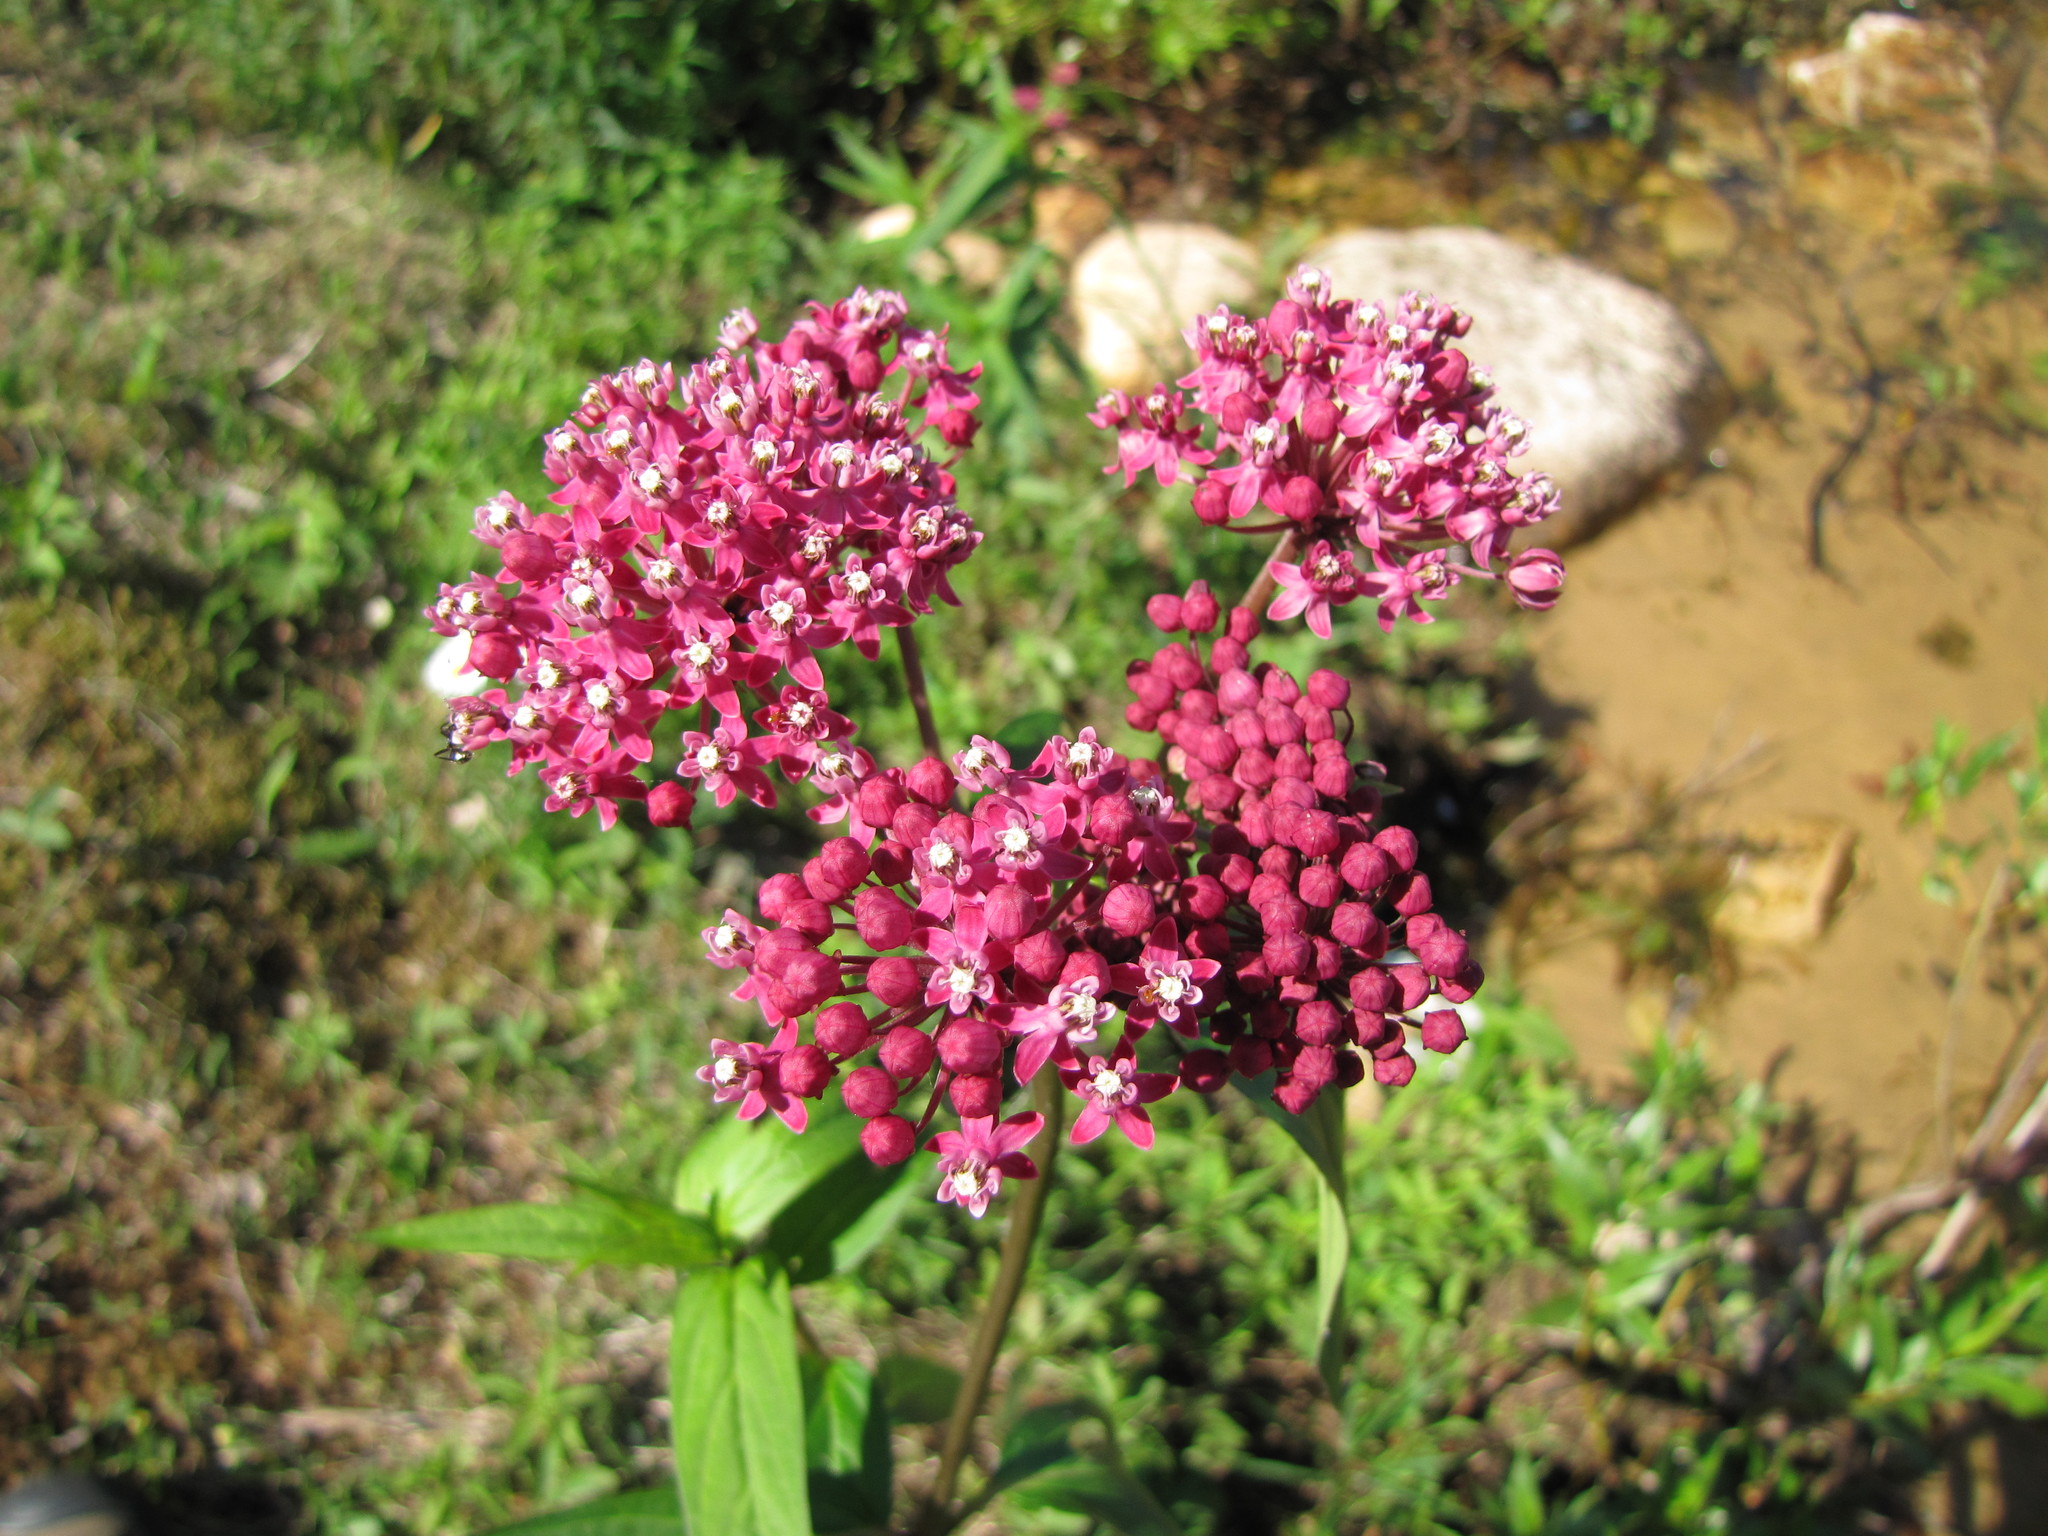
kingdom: Plantae
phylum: Tracheophyta
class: Magnoliopsida
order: Gentianales
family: Apocynaceae
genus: Asclepias
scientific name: Asclepias incarnata
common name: Swamp milkweed
